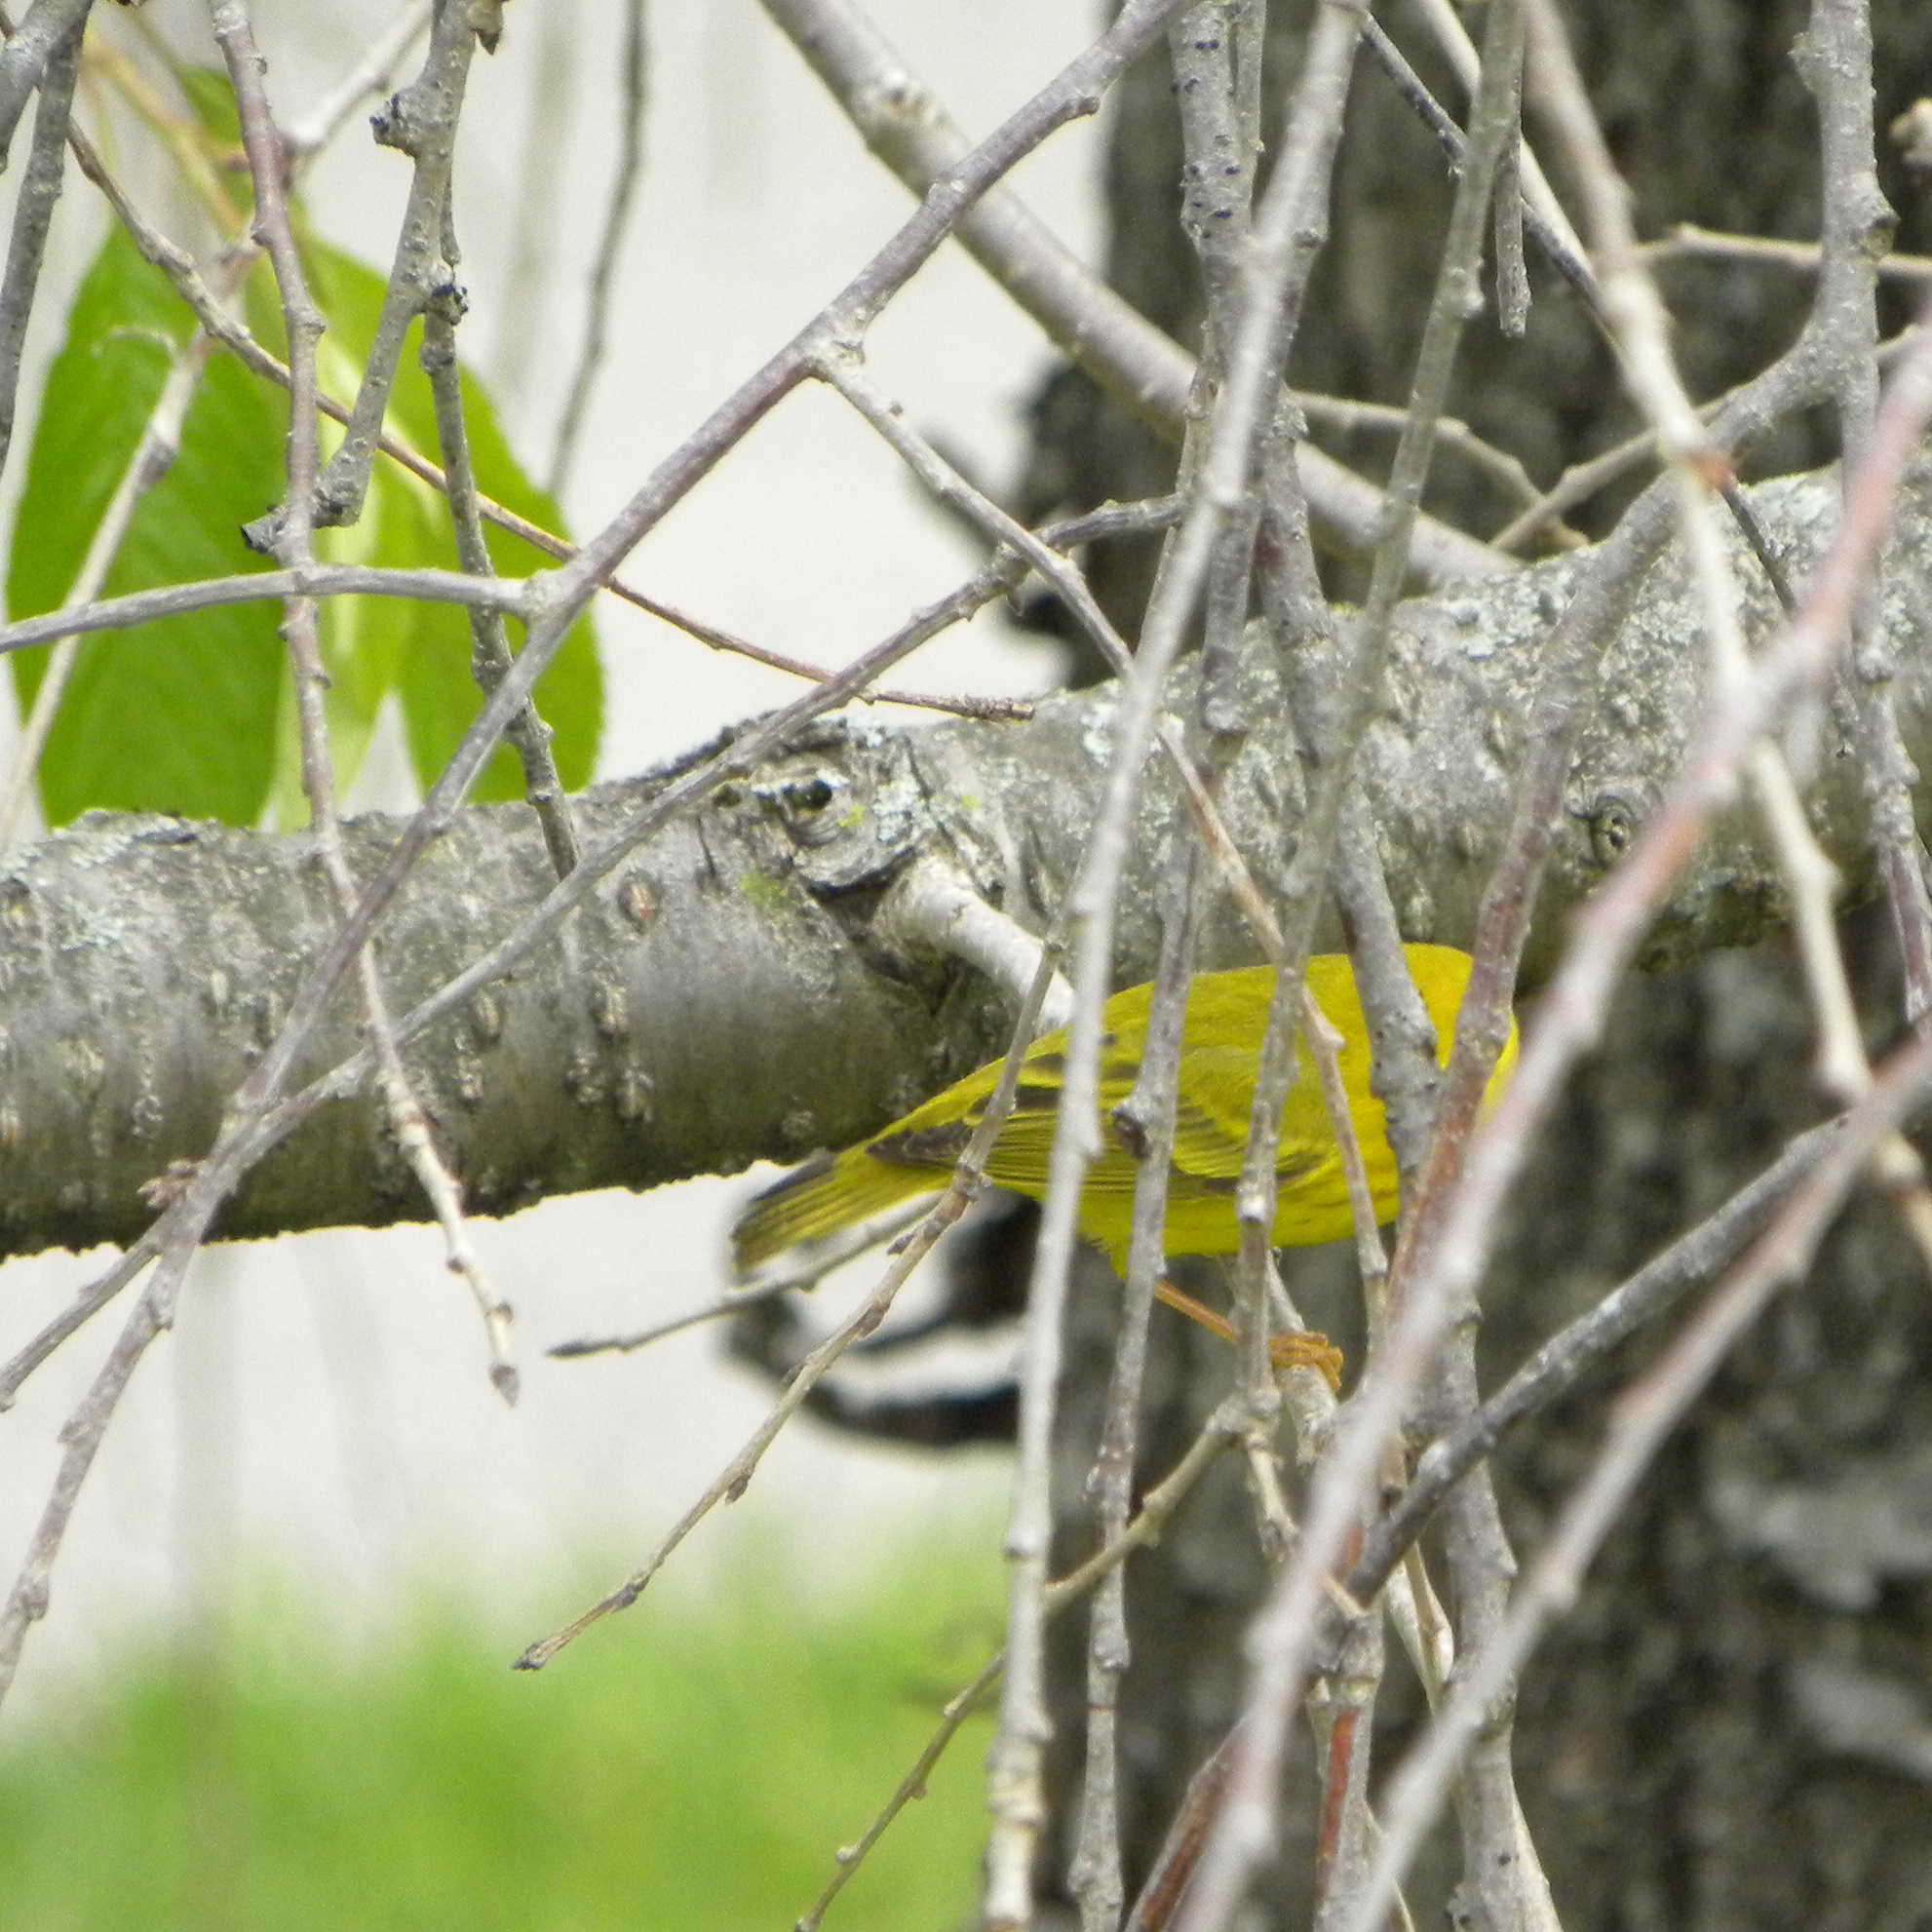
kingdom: Animalia
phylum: Chordata
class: Aves
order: Passeriformes
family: Parulidae
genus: Setophaga
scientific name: Setophaga petechia
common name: Yellow warbler
